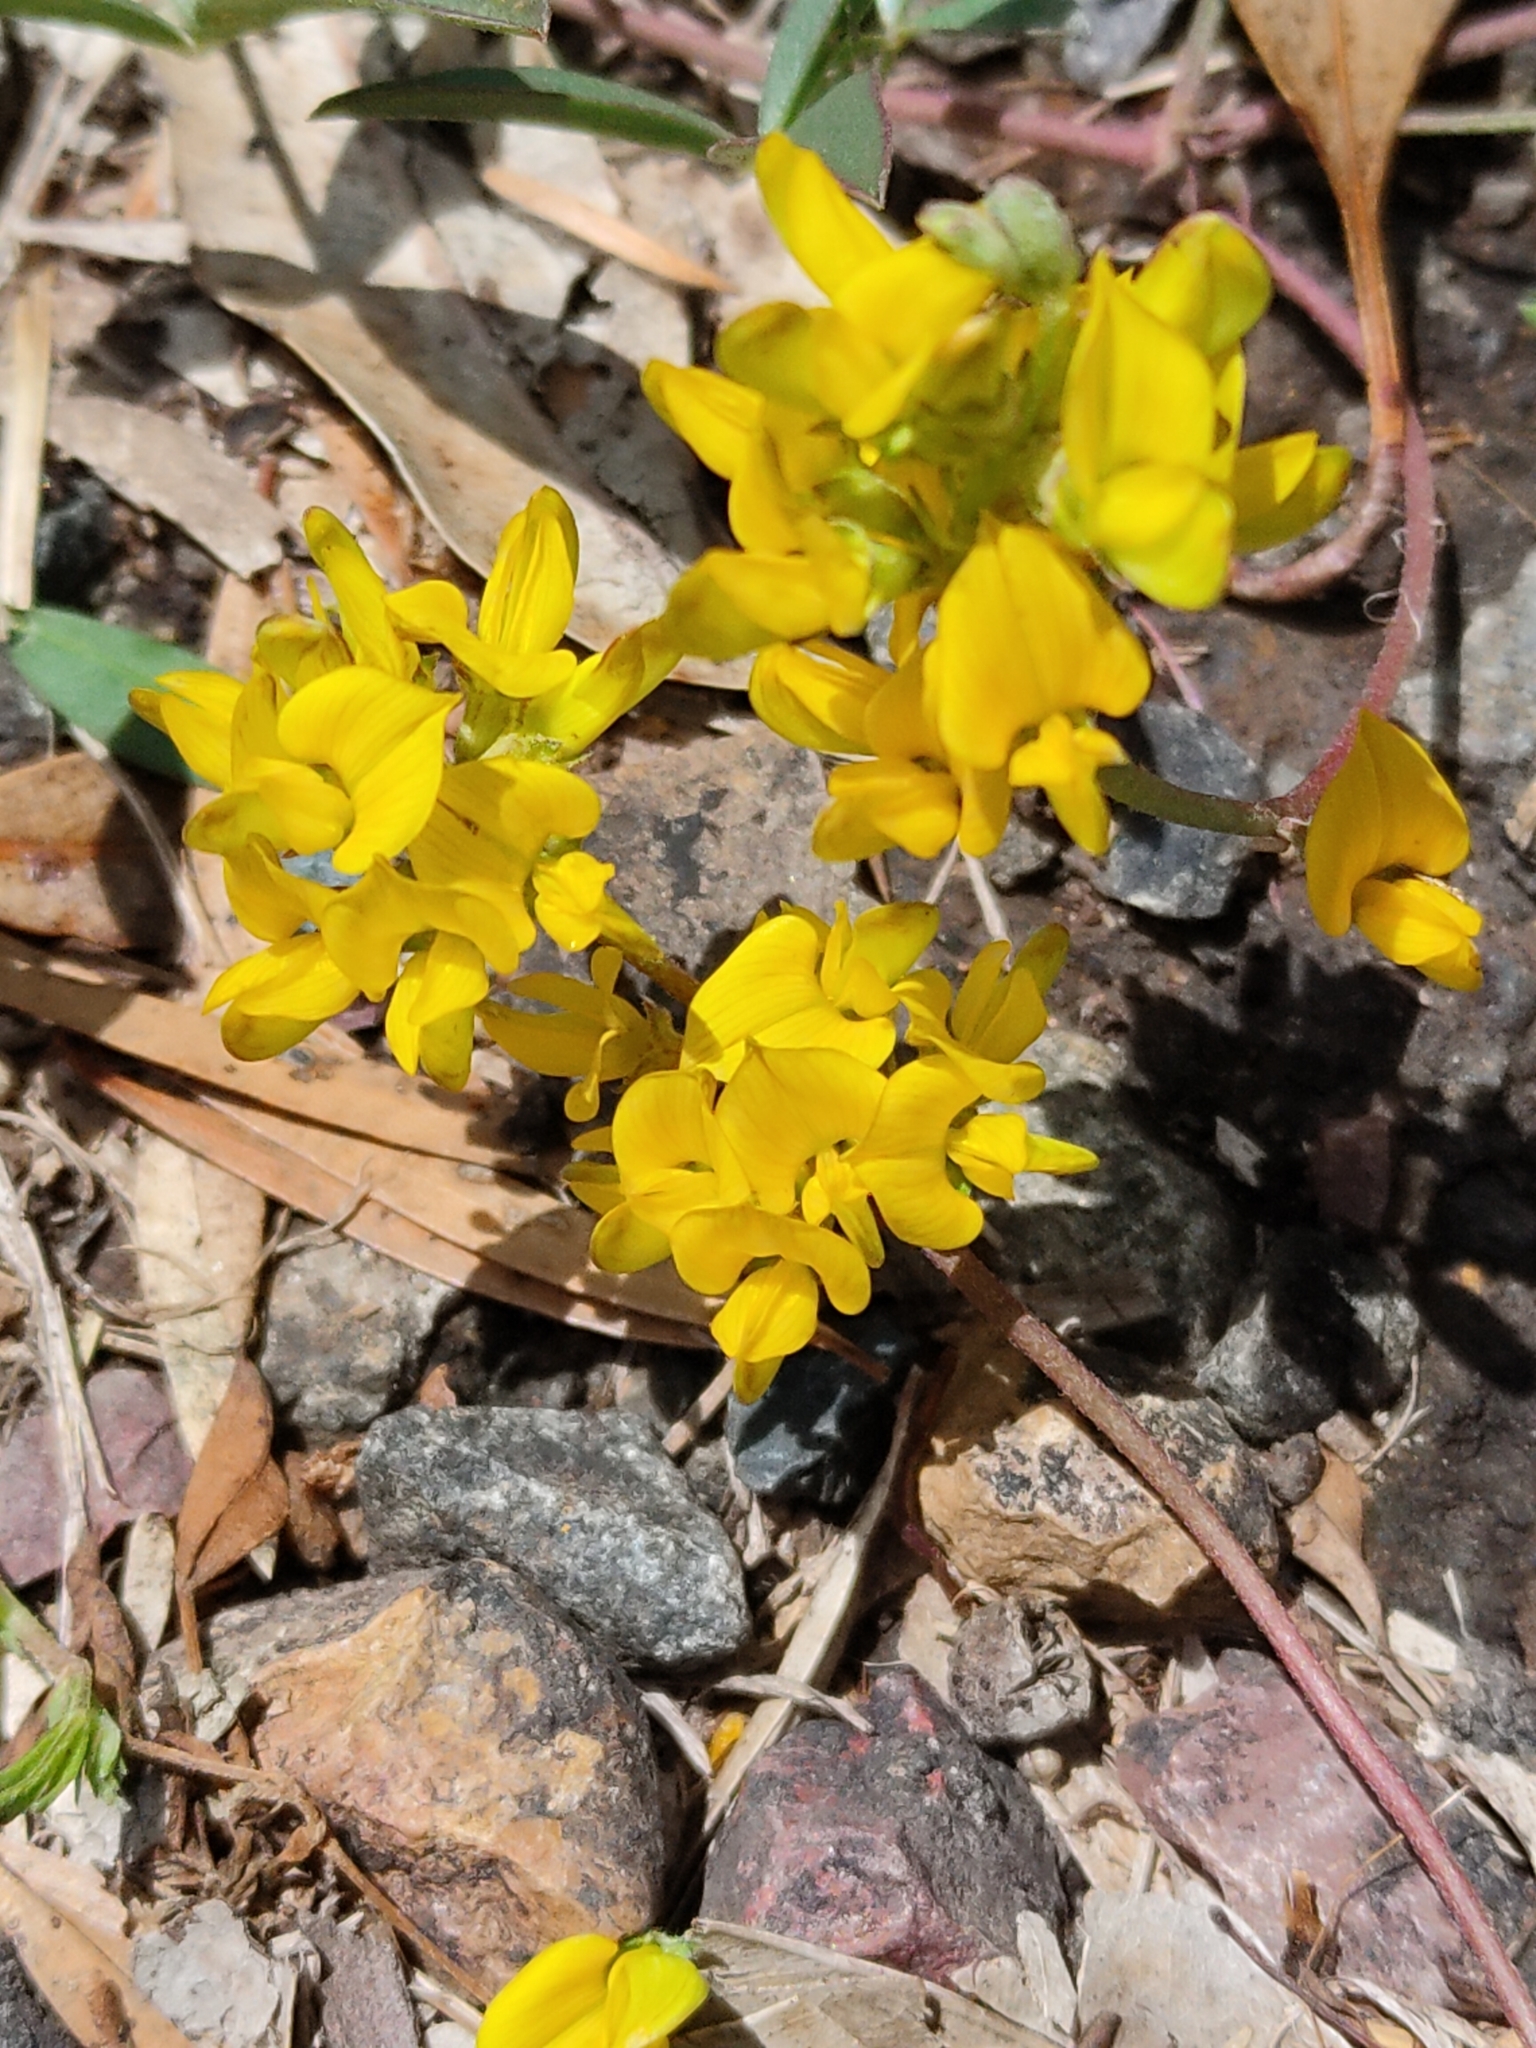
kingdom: Plantae
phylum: Tracheophyta
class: Magnoliopsida
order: Fabales
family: Fabaceae
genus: Listia
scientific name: Listia bainesii
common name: Lotononis
